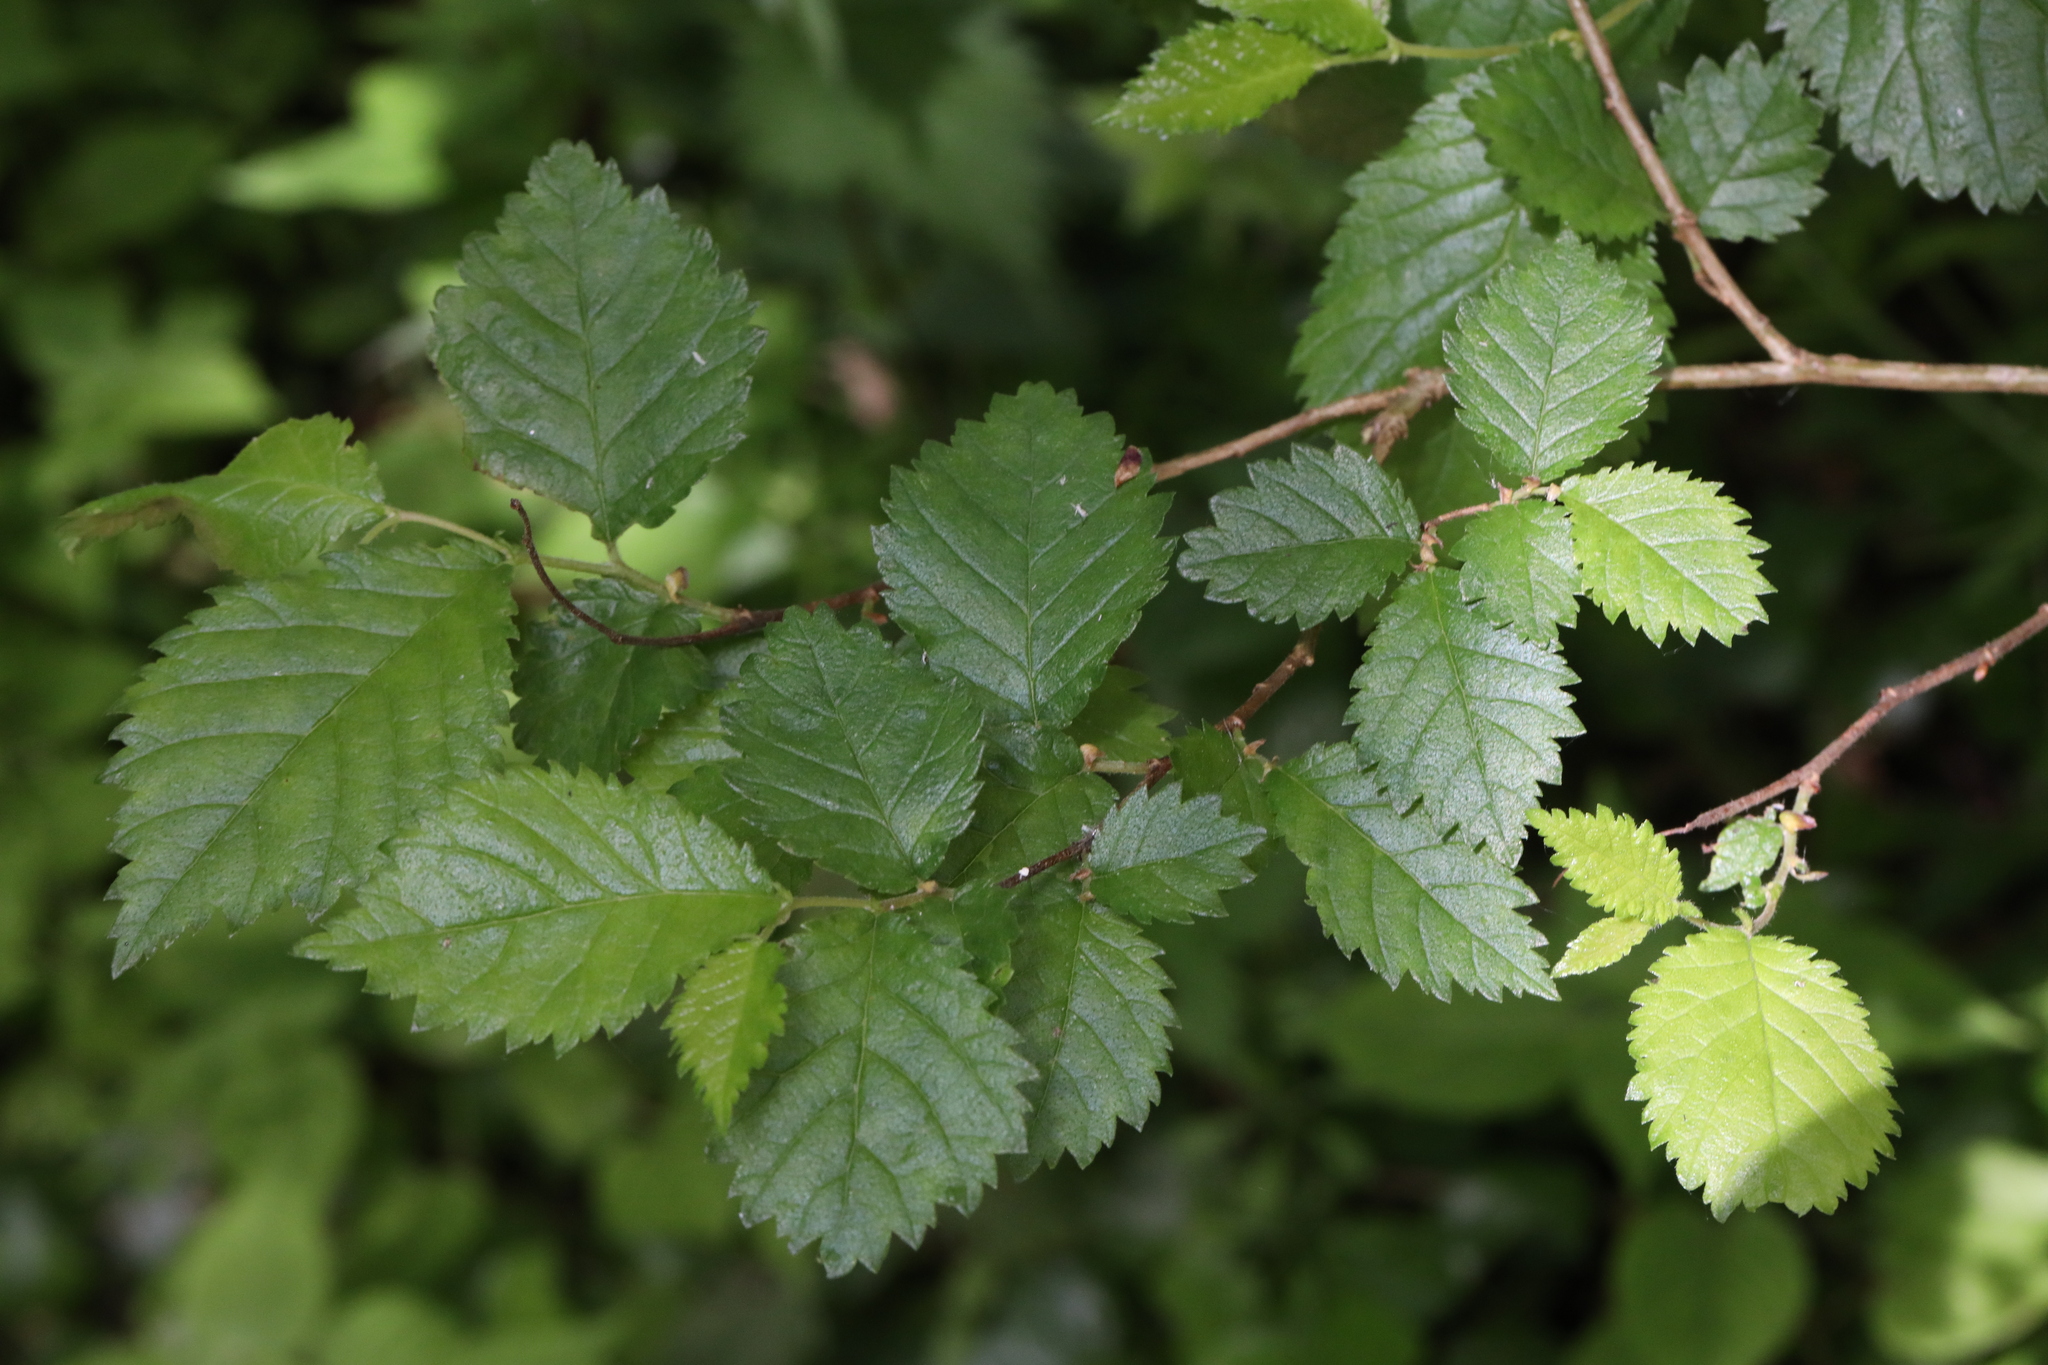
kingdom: Plantae
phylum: Tracheophyta
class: Magnoliopsida
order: Rosales
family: Ulmaceae
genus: Ulmus
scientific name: Ulmus minor
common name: Small-leaved elm
